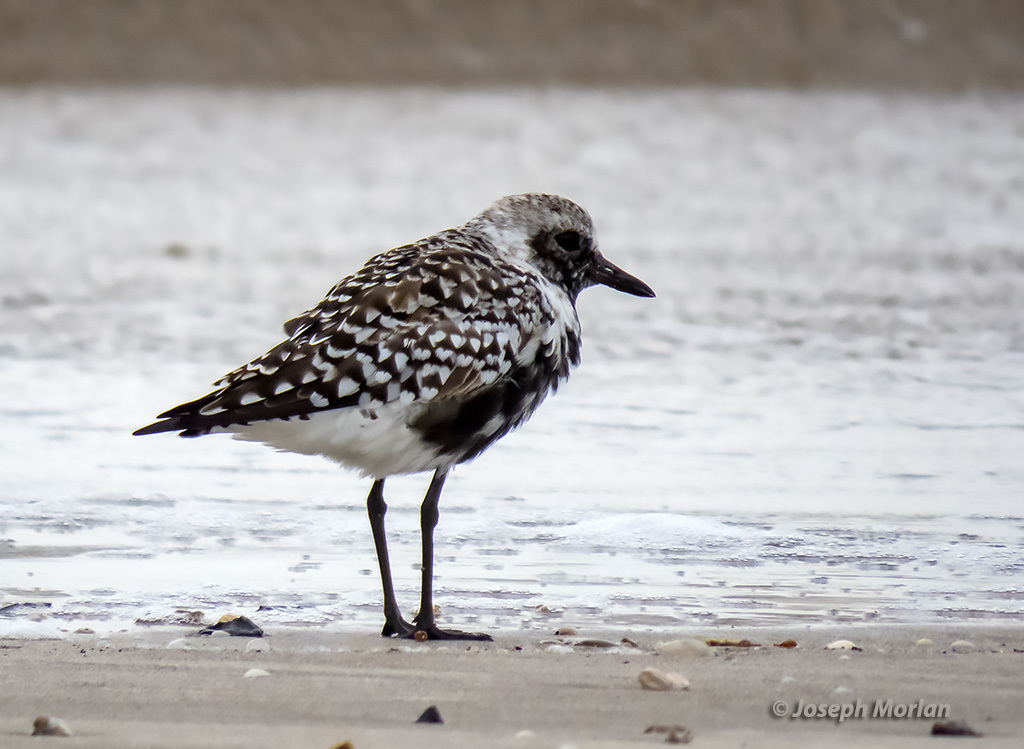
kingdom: Animalia
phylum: Chordata
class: Aves
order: Charadriiformes
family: Charadriidae
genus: Pluvialis
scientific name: Pluvialis squatarola
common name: Grey plover
